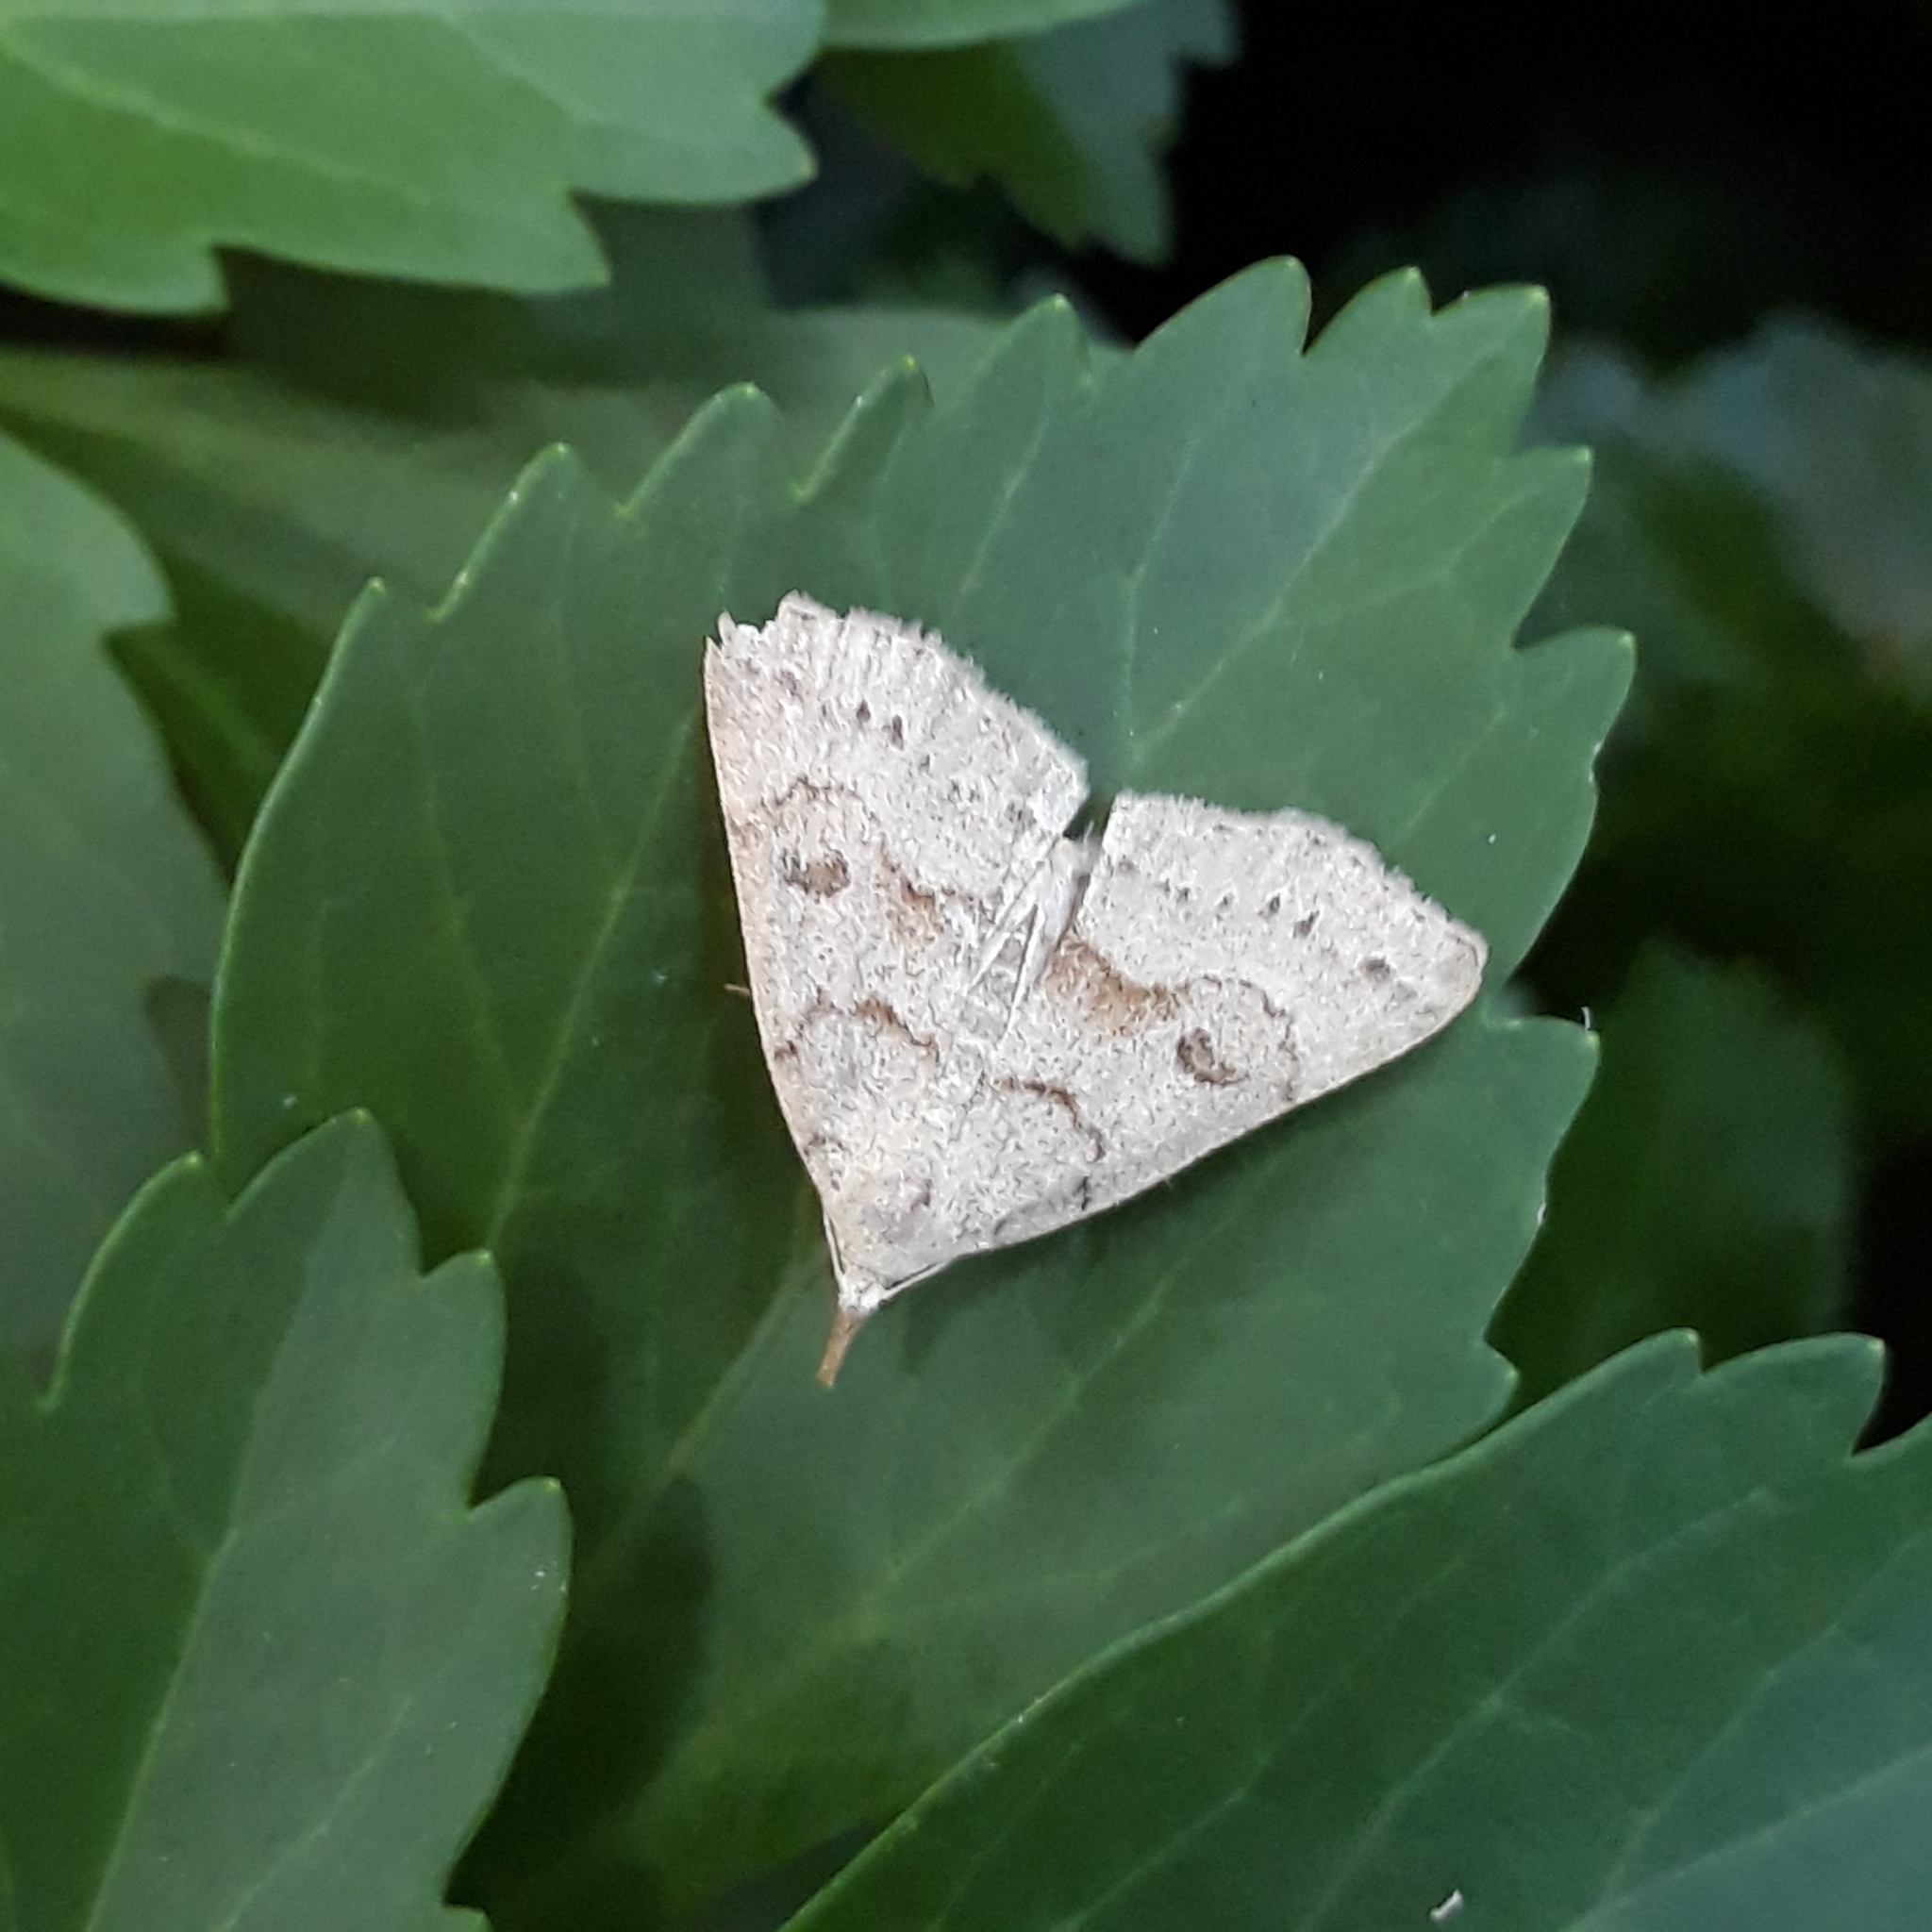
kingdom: Animalia
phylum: Arthropoda
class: Insecta
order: Lepidoptera
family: Erebidae
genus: Macrochilo
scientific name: Macrochilo morbidalis
